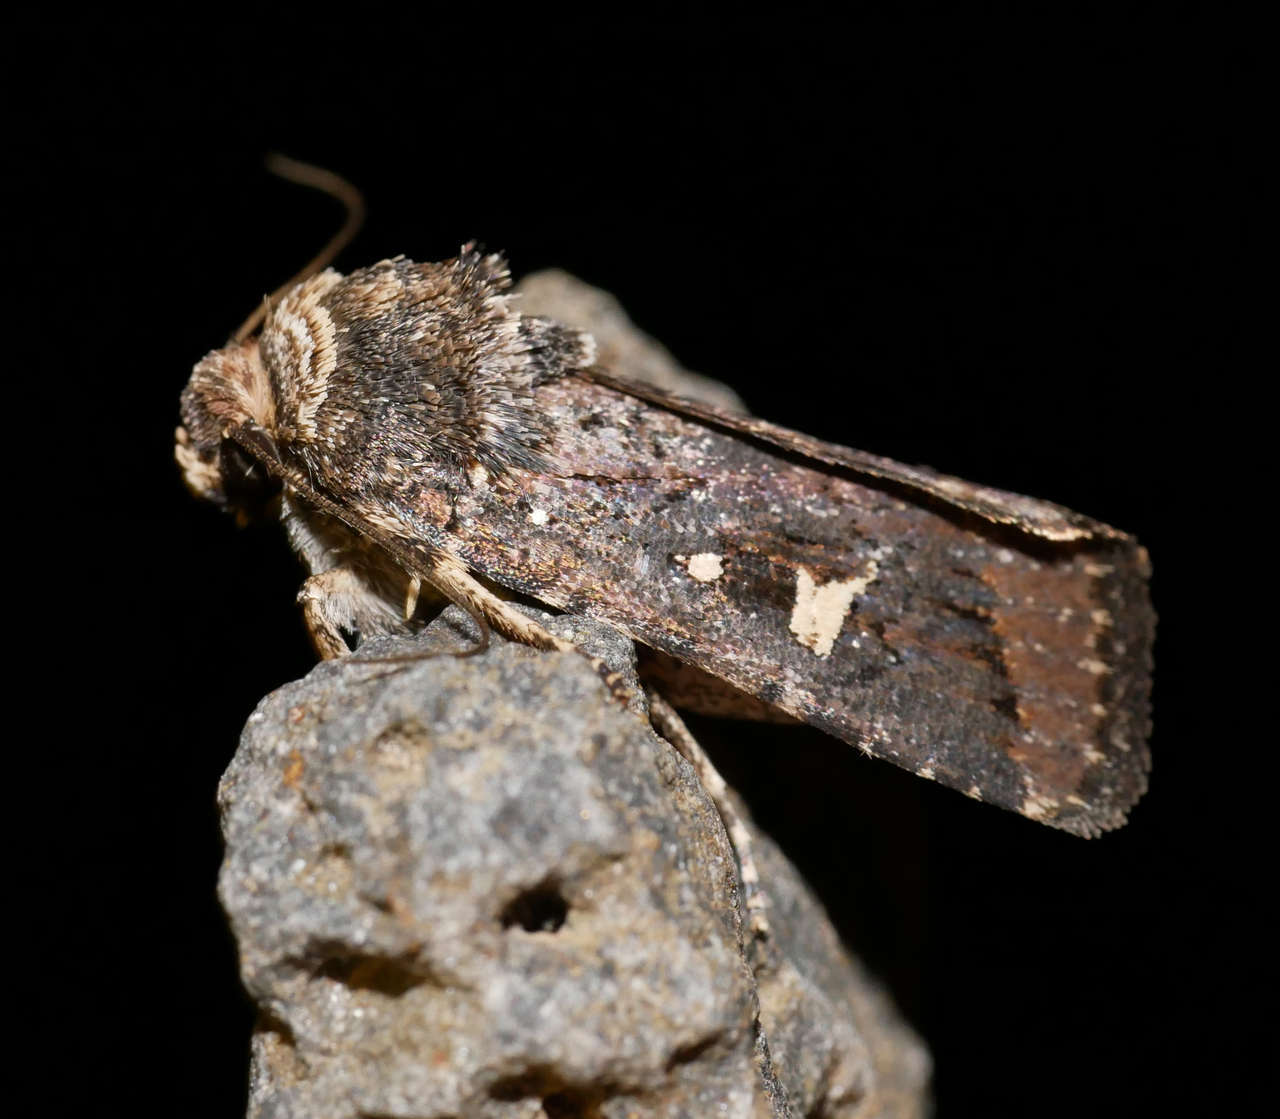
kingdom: Animalia
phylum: Arthropoda
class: Insecta
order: Lepidoptera
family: Noctuidae
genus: Proteuxoa
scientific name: Proteuxoa hydraecioides
